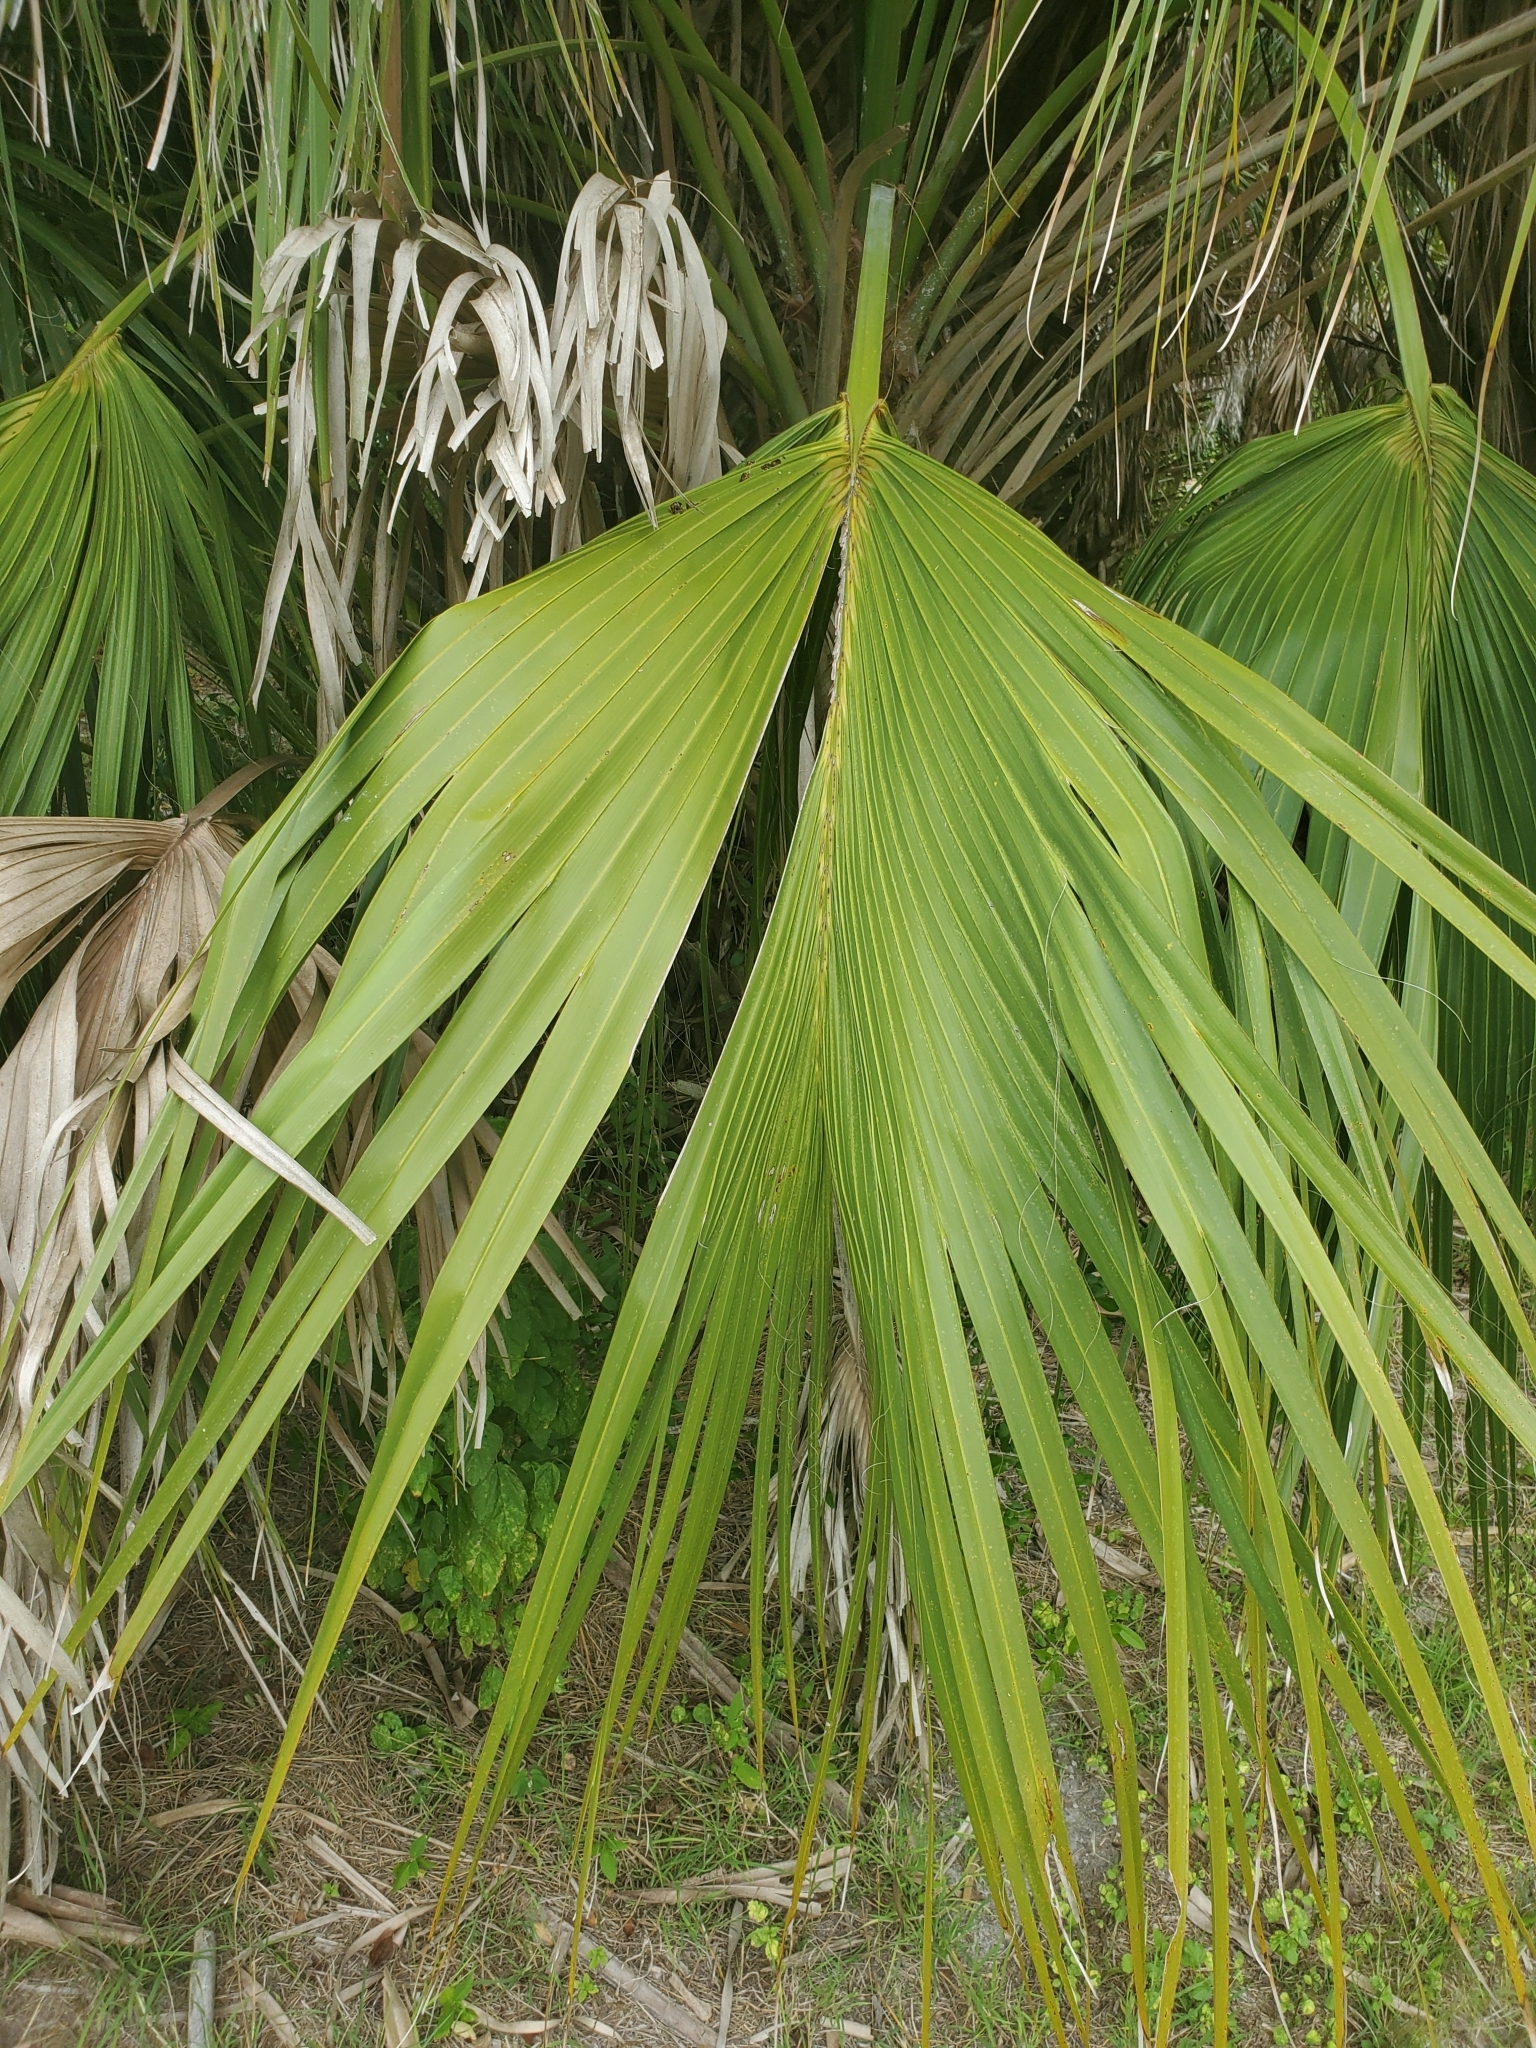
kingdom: Plantae
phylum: Tracheophyta
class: Liliopsida
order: Arecales
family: Arecaceae
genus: Sabal
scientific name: Sabal palmetto
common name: Blue palmetto
